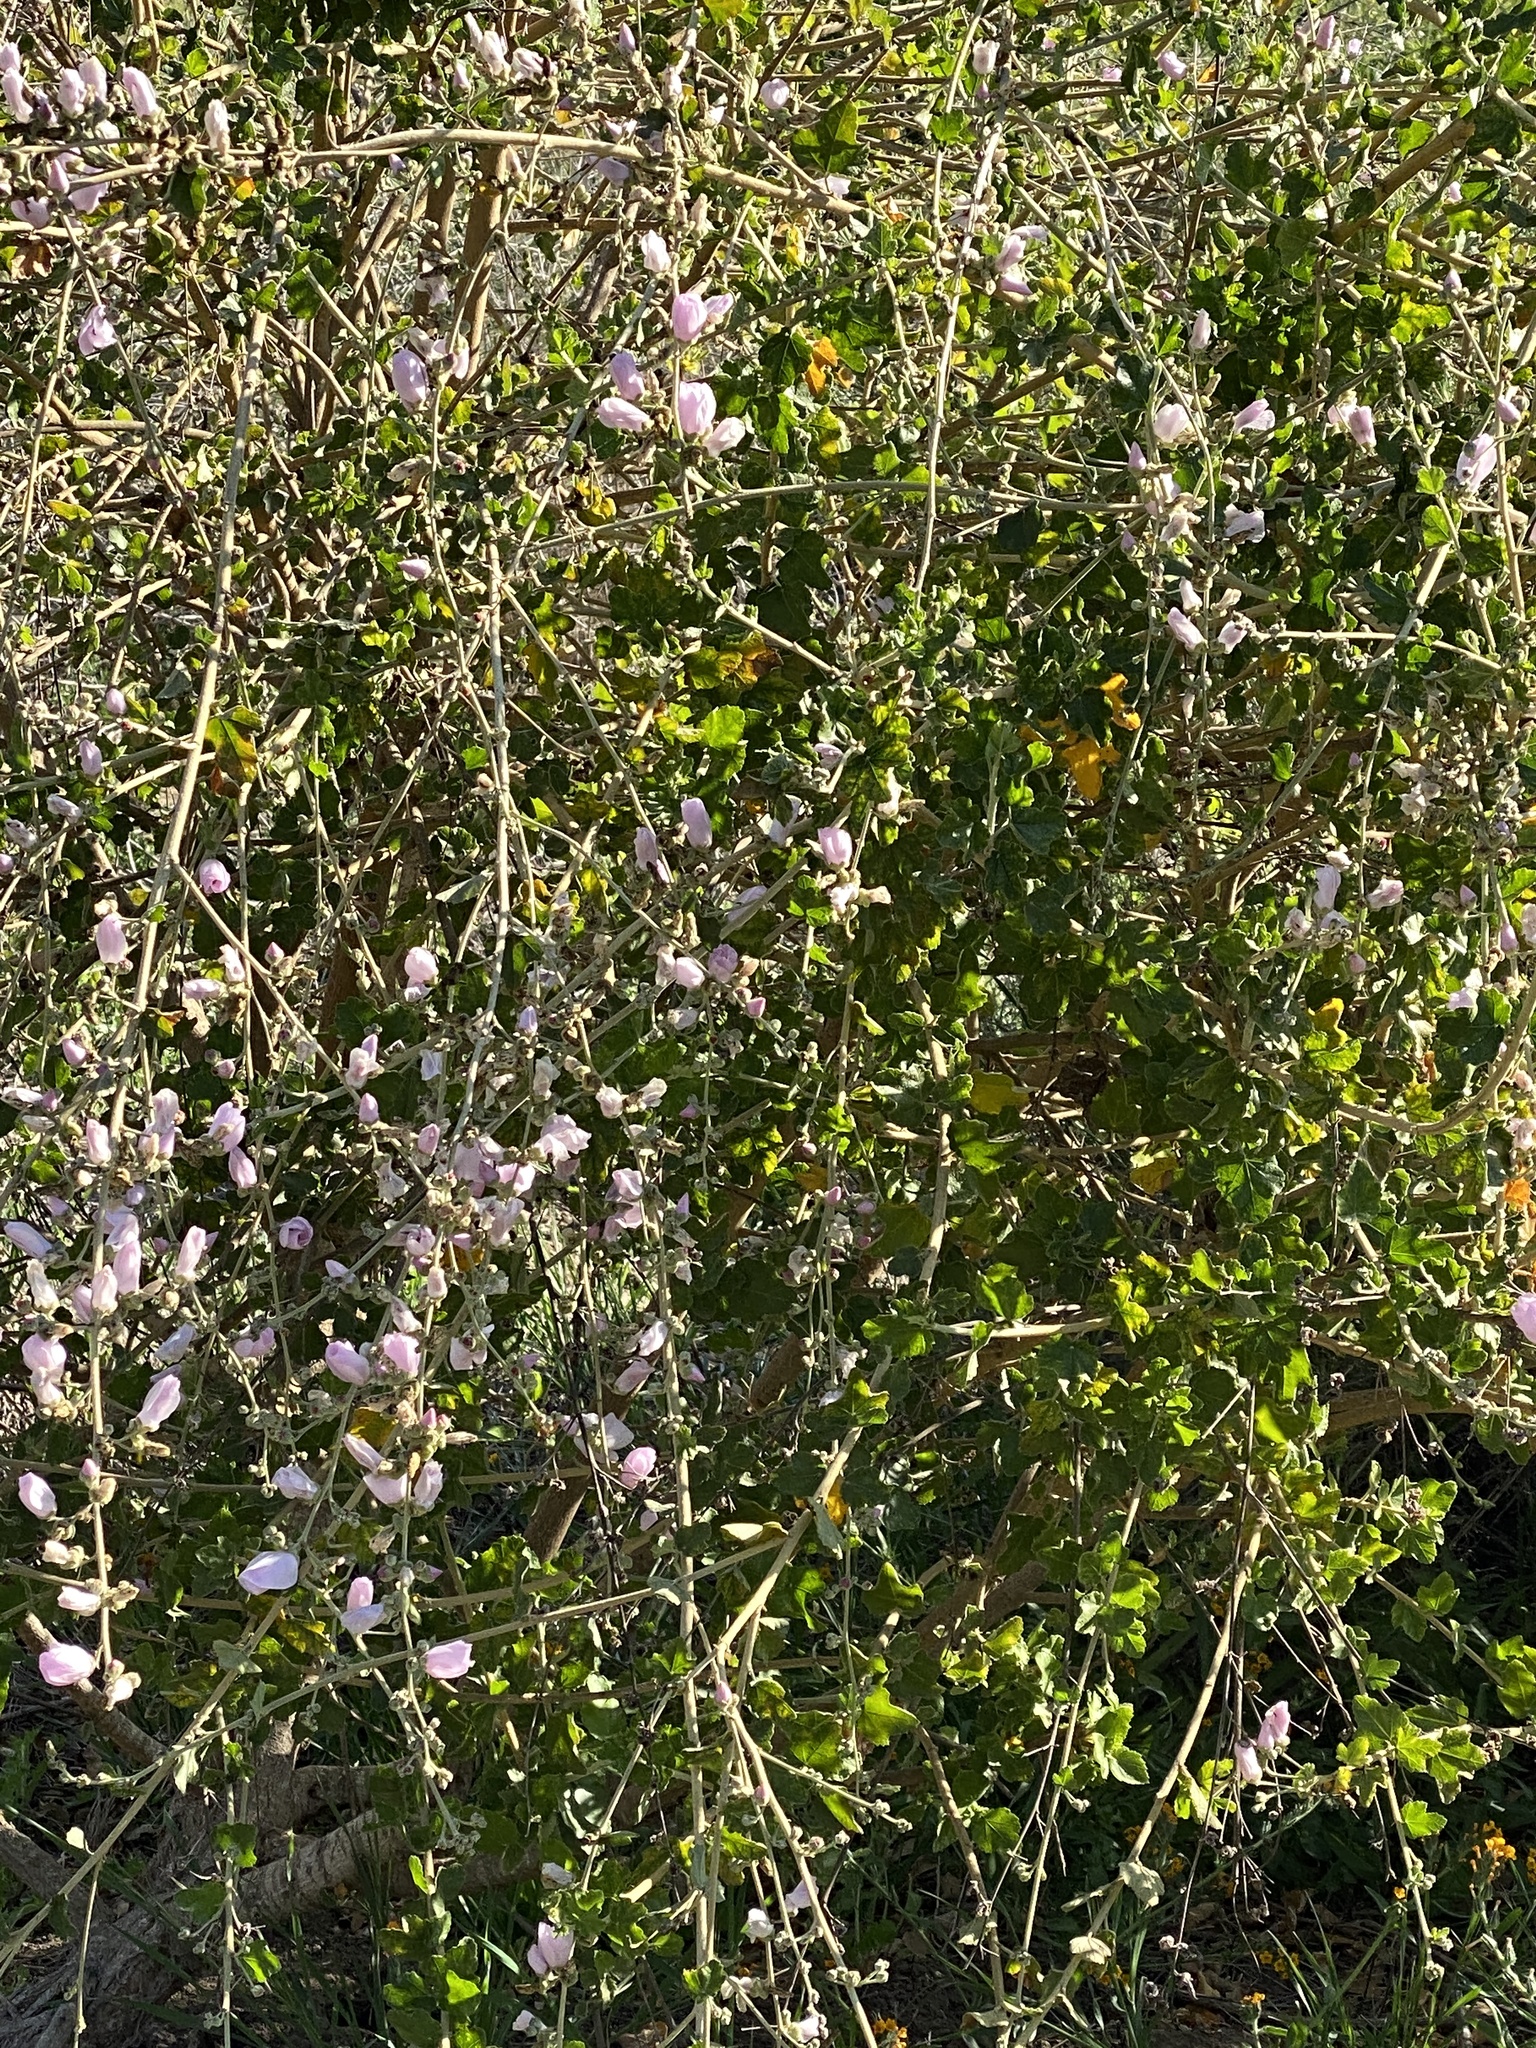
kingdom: Plantae
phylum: Tracheophyta
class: Magnoliopsida
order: Malvales
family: Malvaceae
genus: Malacothamnus
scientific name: Malacothamnus fasciculatus
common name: Sant cruz island bush-mallow
